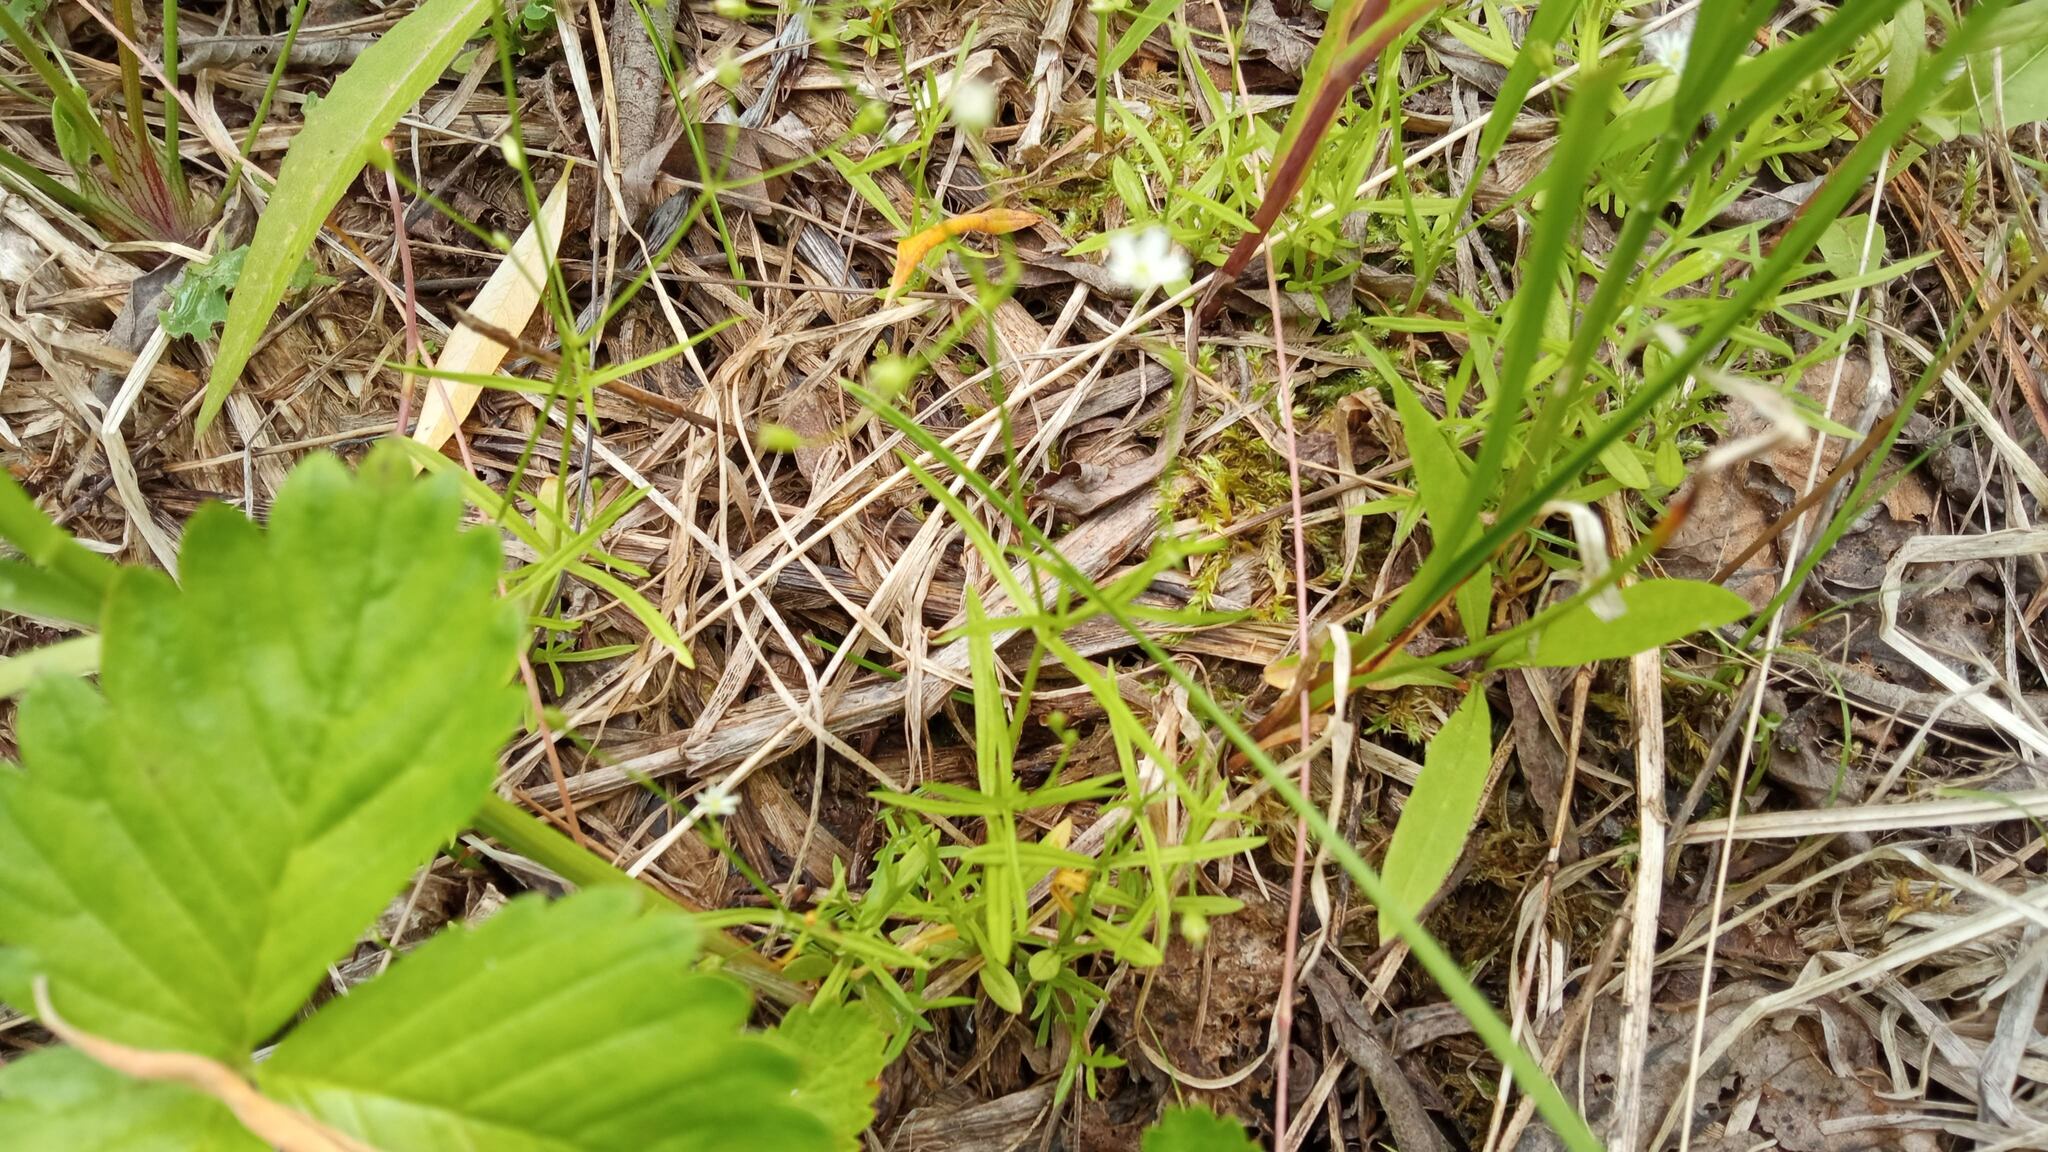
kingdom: Plantae
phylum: Tracheophyta
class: Magnoliopsida
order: Caryophyllales
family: Caryophyllaceae
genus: Stellaria
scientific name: Stellaria longifolia
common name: Long-leaved chickweed
